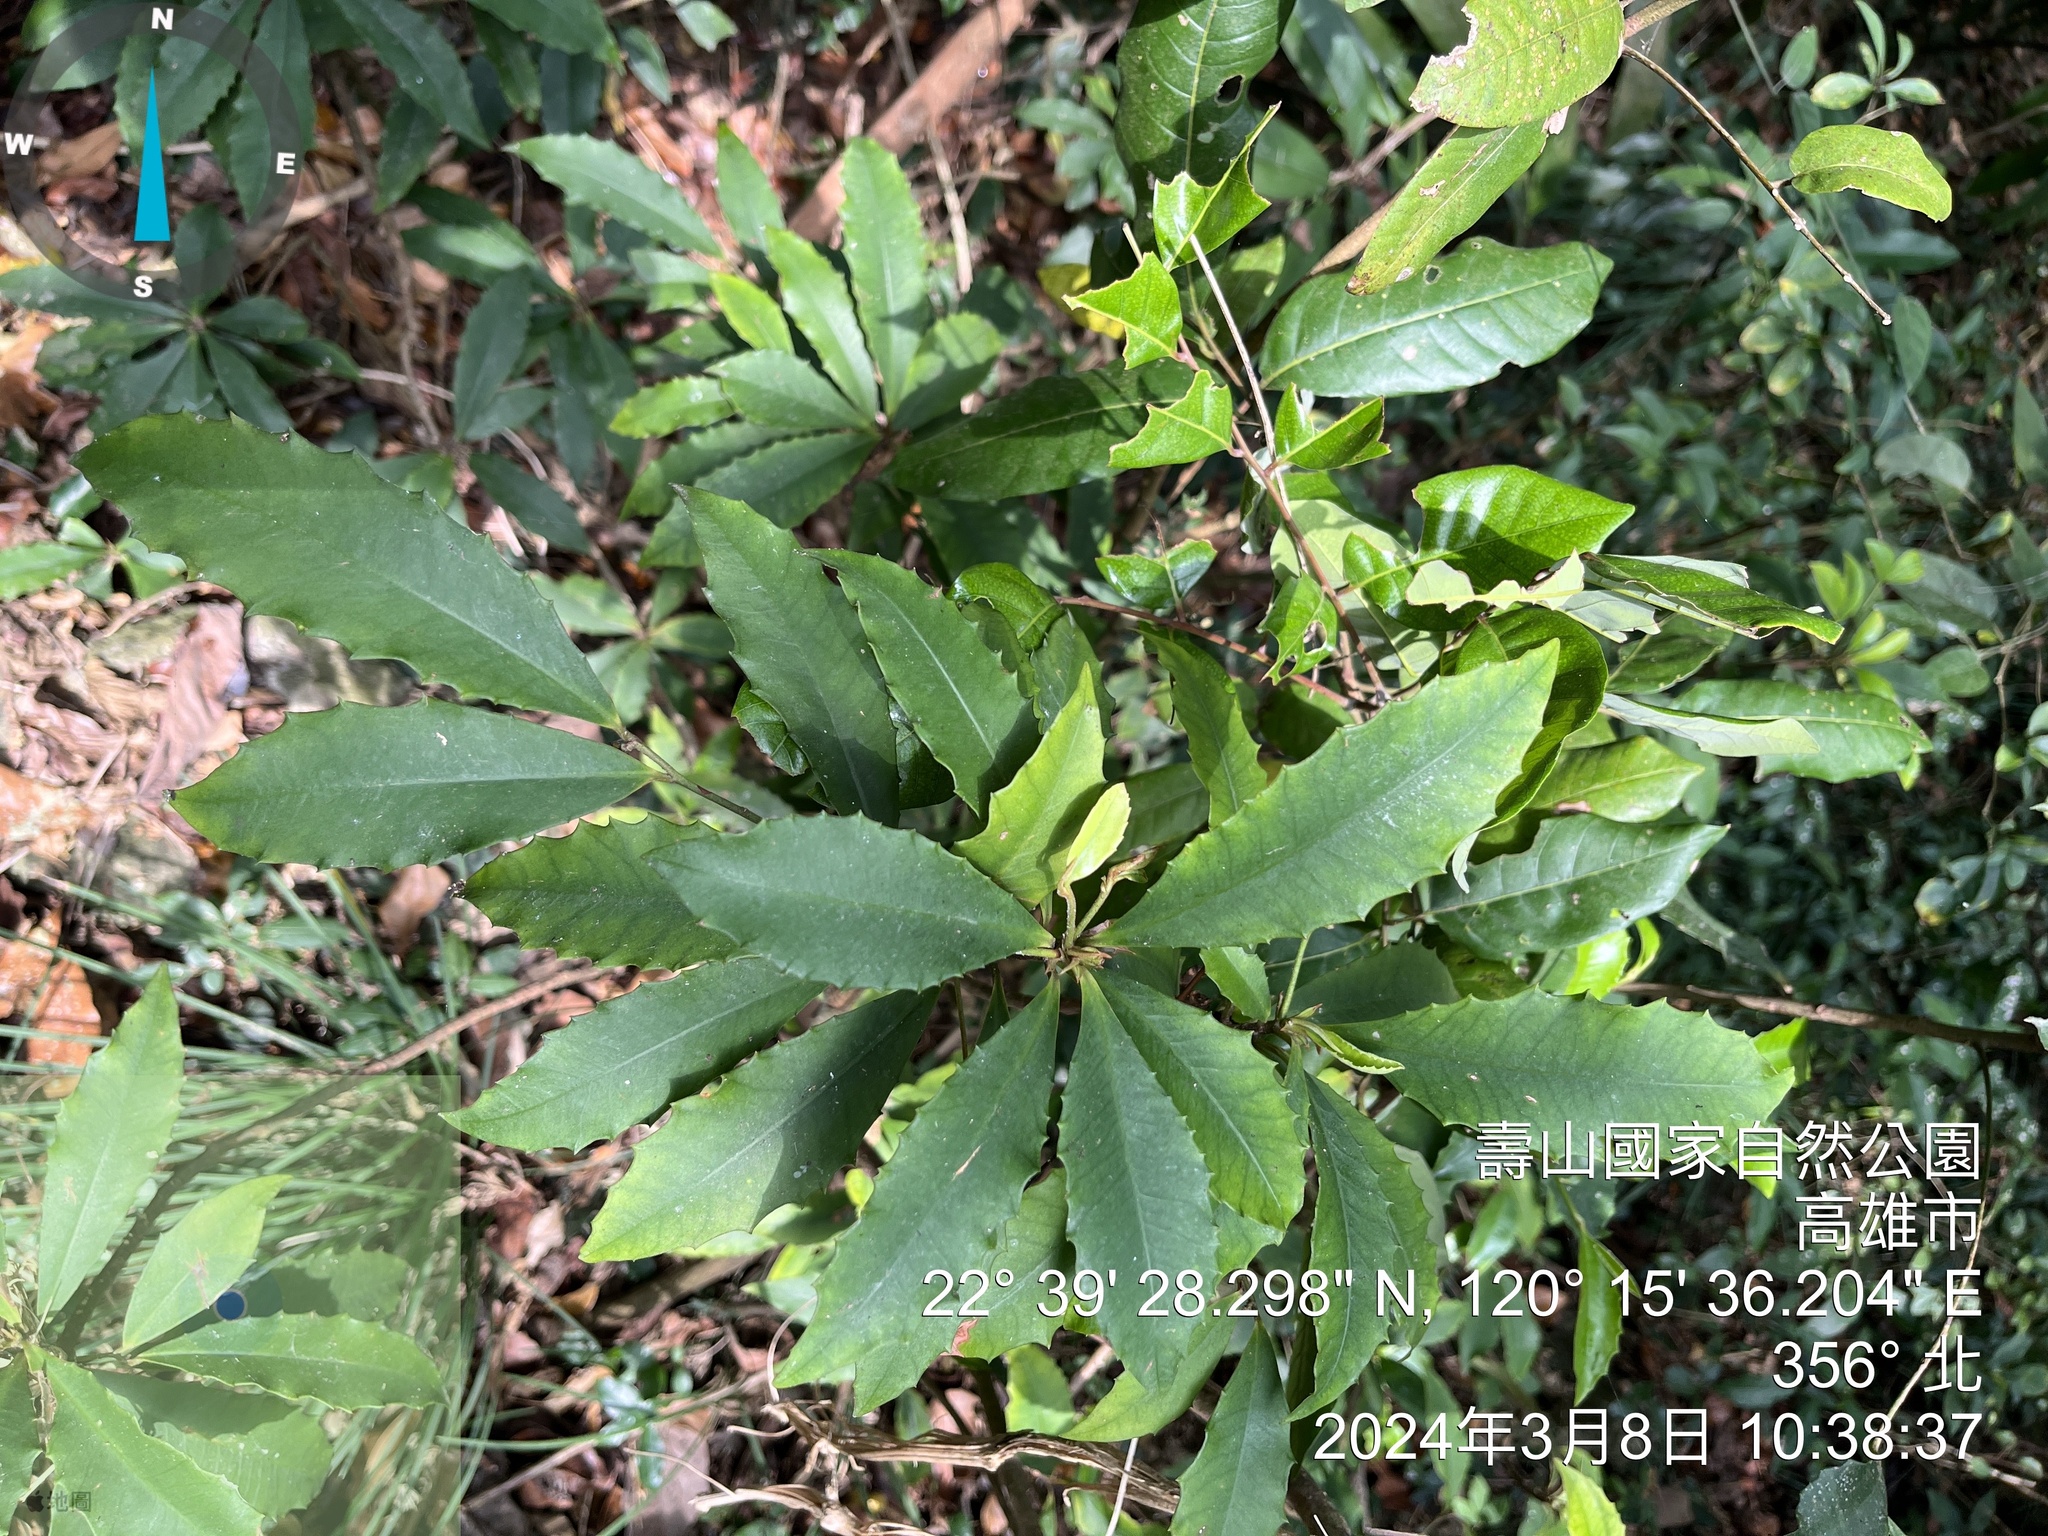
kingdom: Plantae
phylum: Tracheophyta
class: Magnoliopsida
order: Ericales
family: Primulaceae
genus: Ardisia
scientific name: Ardisia cornudentata
